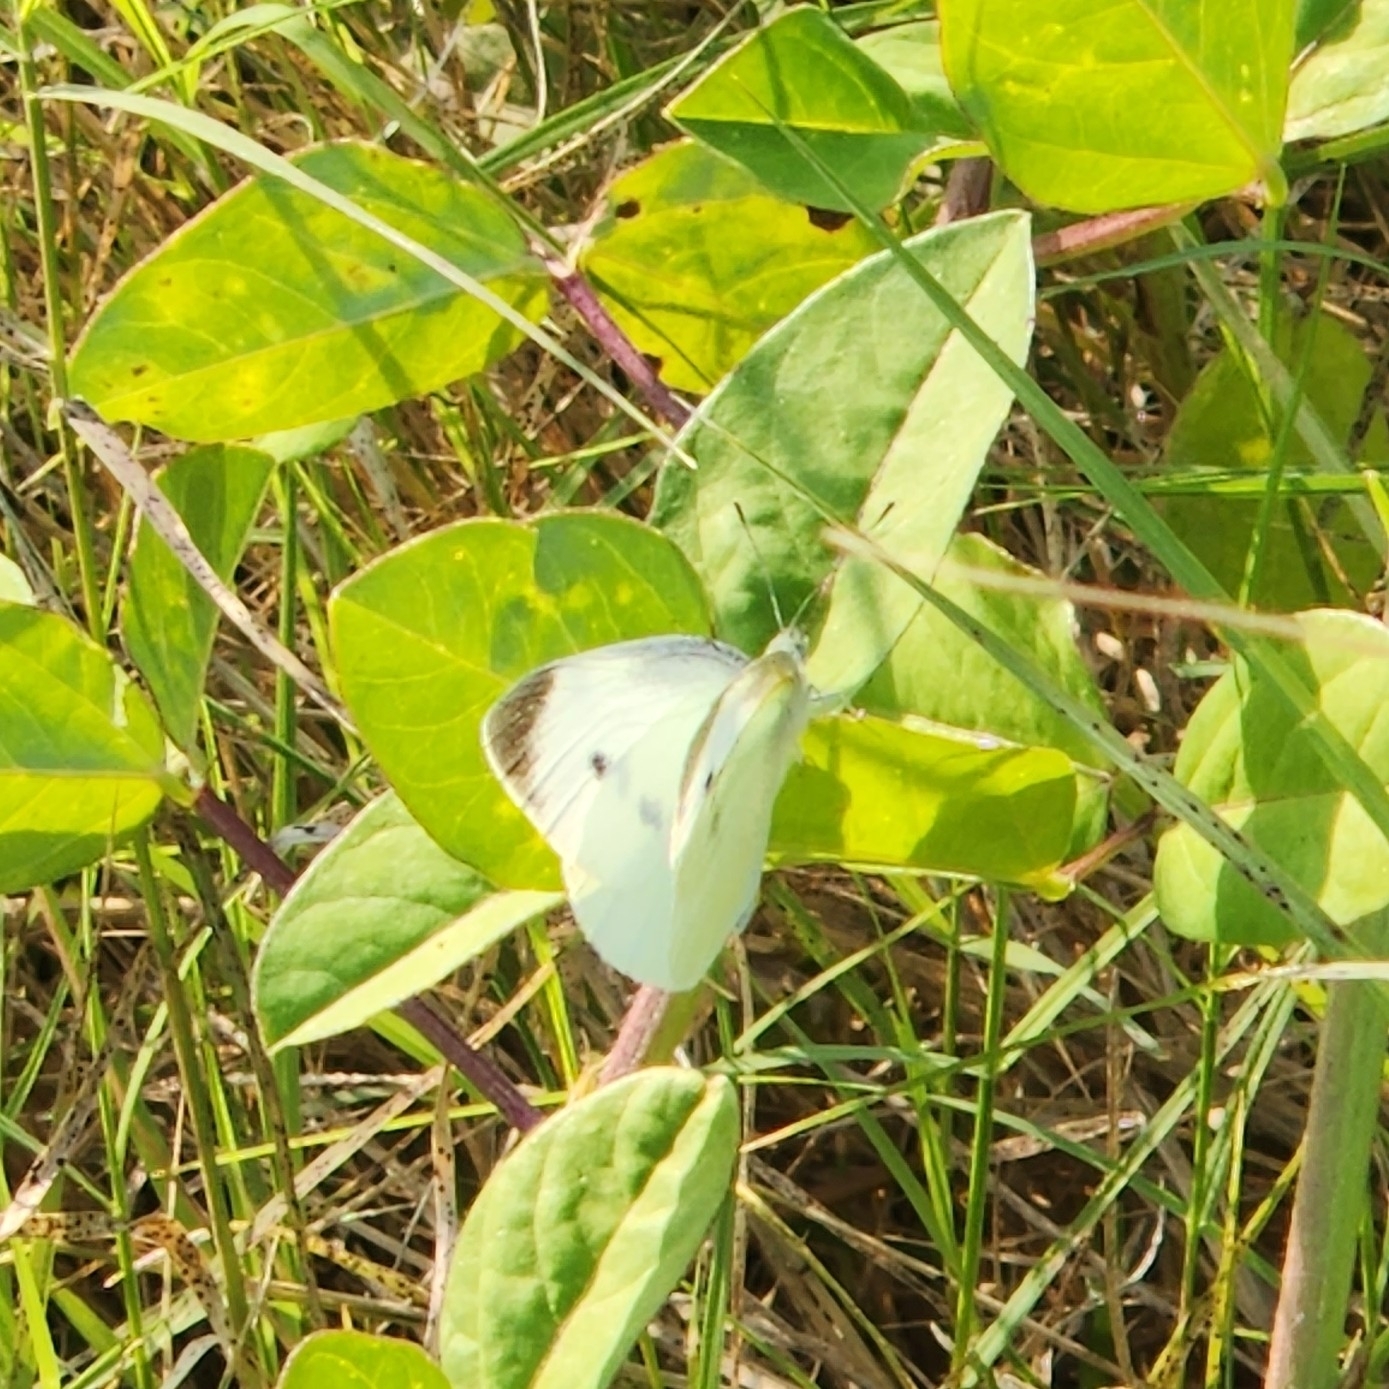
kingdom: Animalia
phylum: Arthropoda
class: Insecta
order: Lepidoptera
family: Pieridae
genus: Pieris
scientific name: Pieris rapae
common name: Small white
